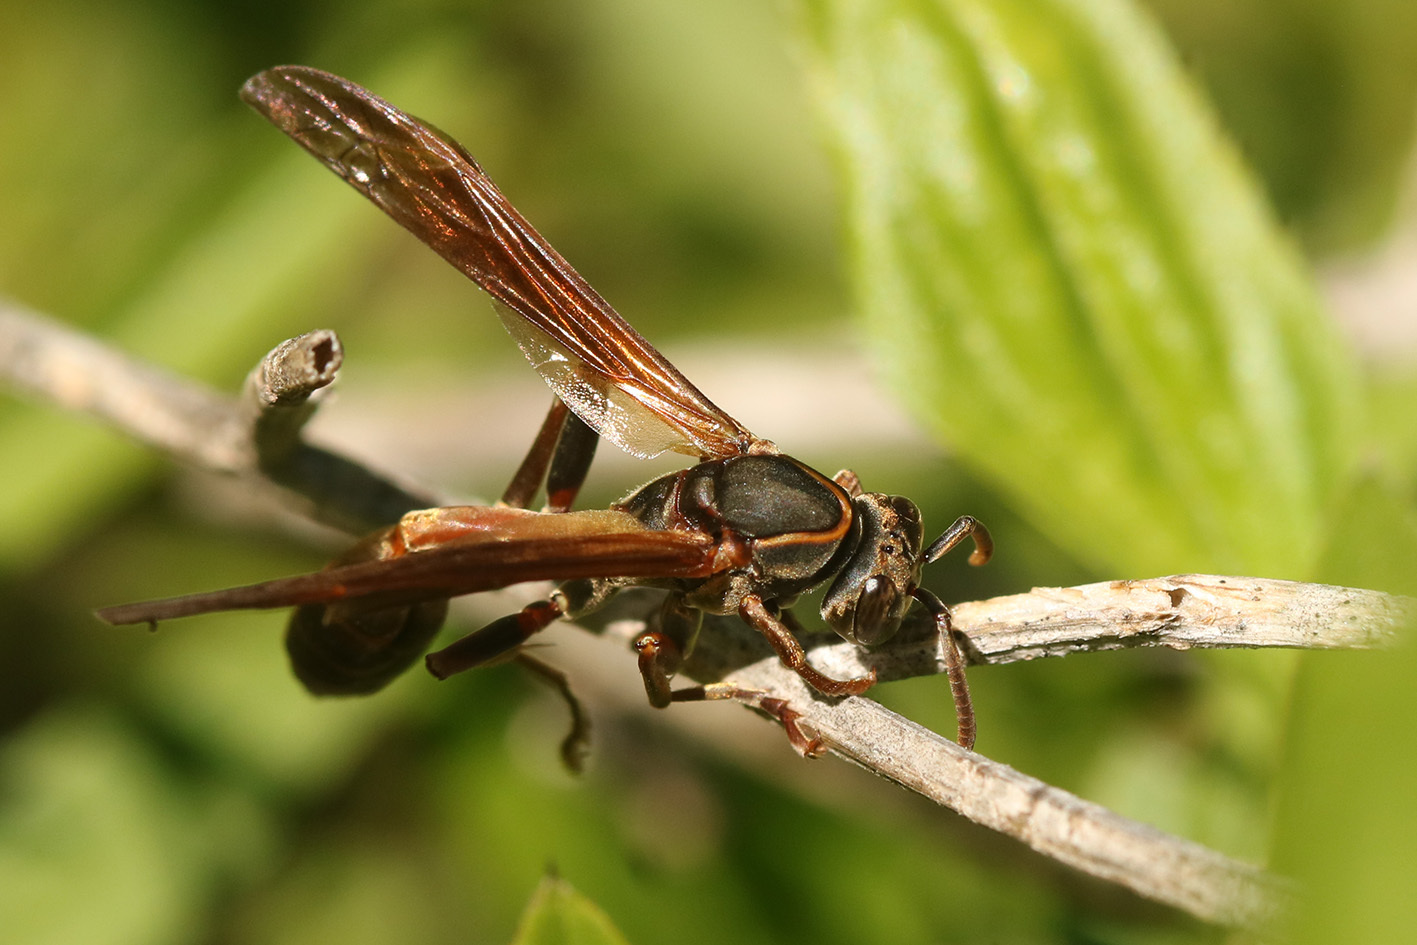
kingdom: Animalia
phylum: Arthropoda
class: Insecta
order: Hymenoptera
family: Vespidae
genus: Mischocyttarus
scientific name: Mischocyttarus drewseni
